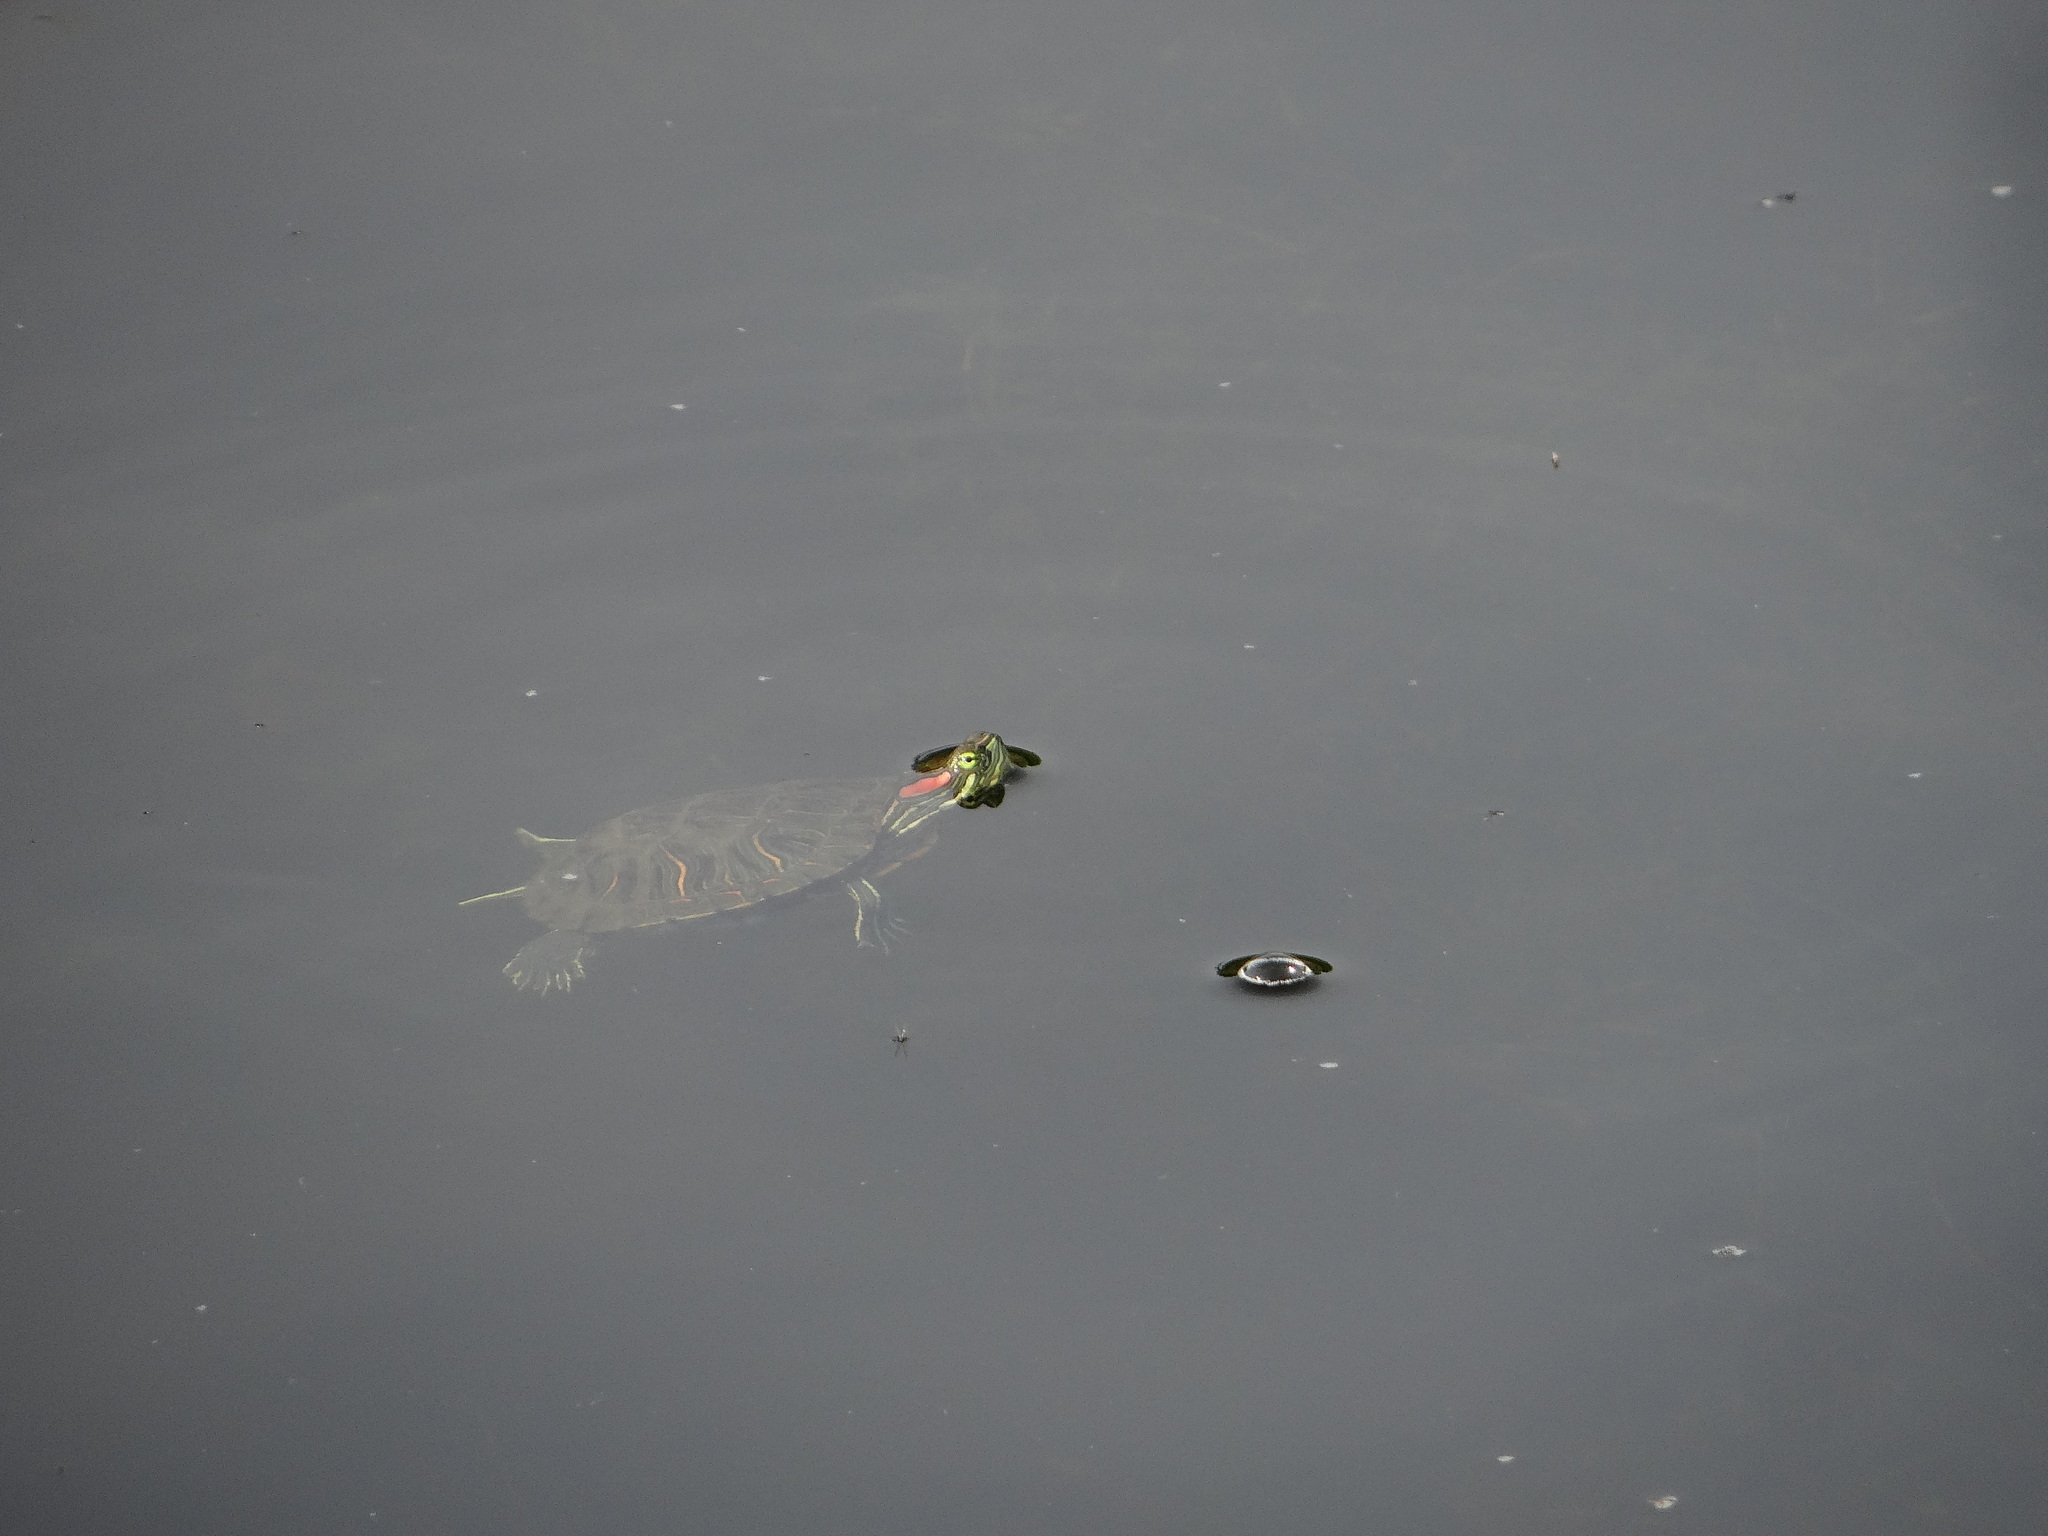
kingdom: Animalia
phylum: Chordata
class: Testudines
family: Emydidae
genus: Trachemys
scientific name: Trachemys scripta
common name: Slider
